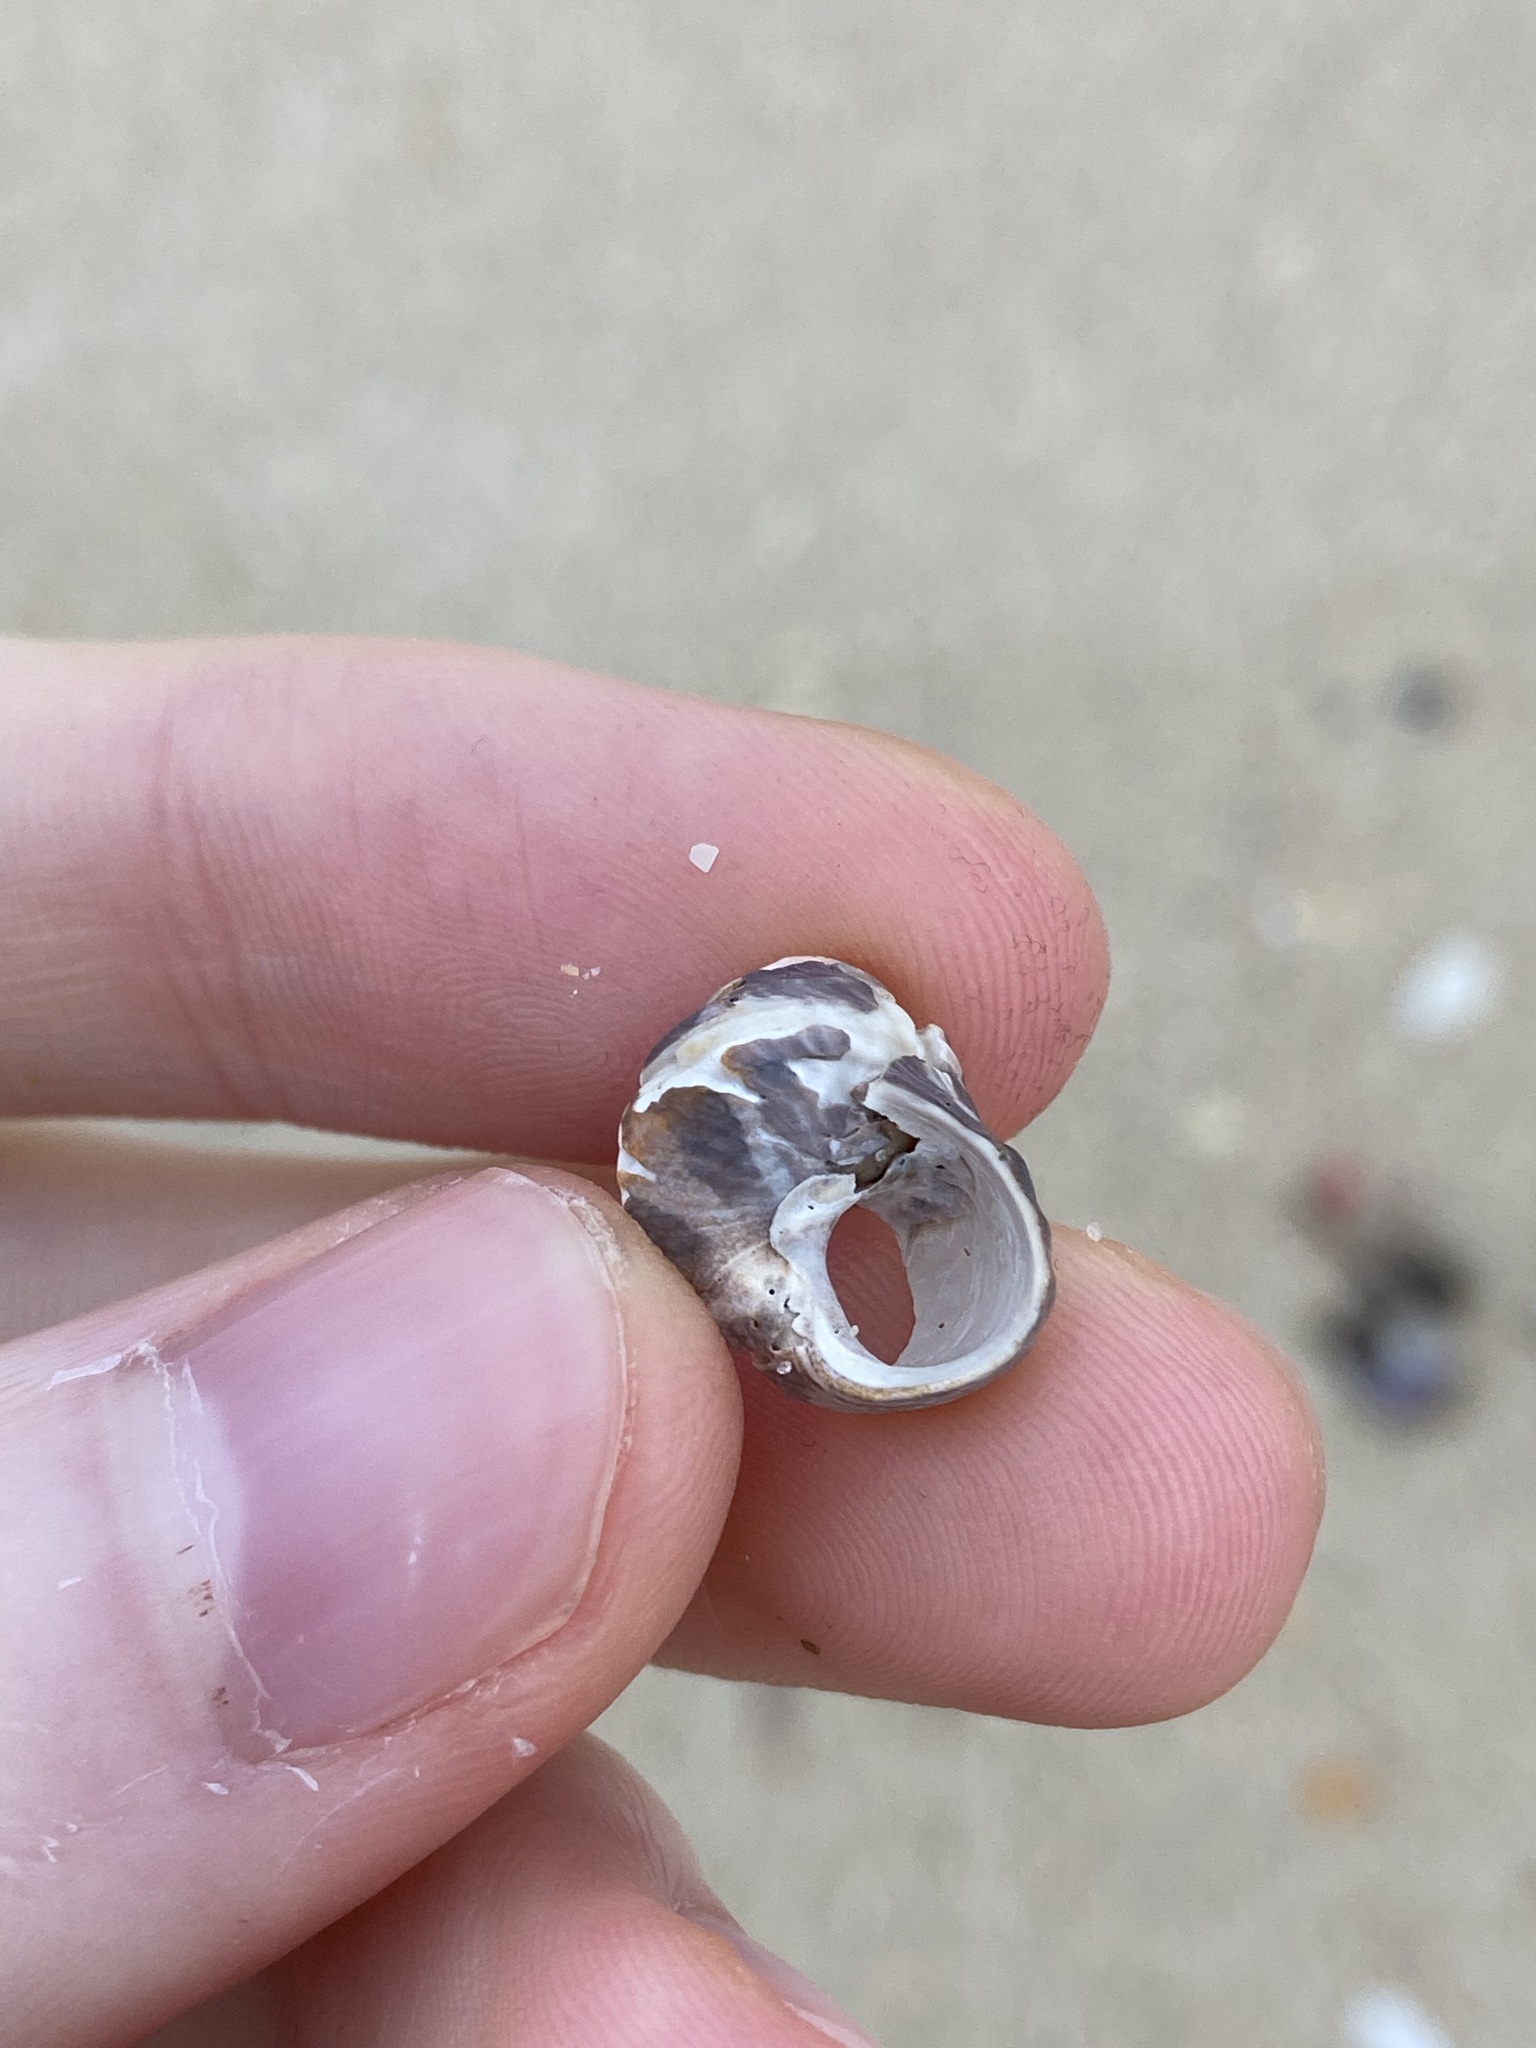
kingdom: Animalia
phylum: Mollusca
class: Gastropoda
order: Trochida
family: Trochidae
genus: Austrocochlea
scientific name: Austrocochlea porcata
